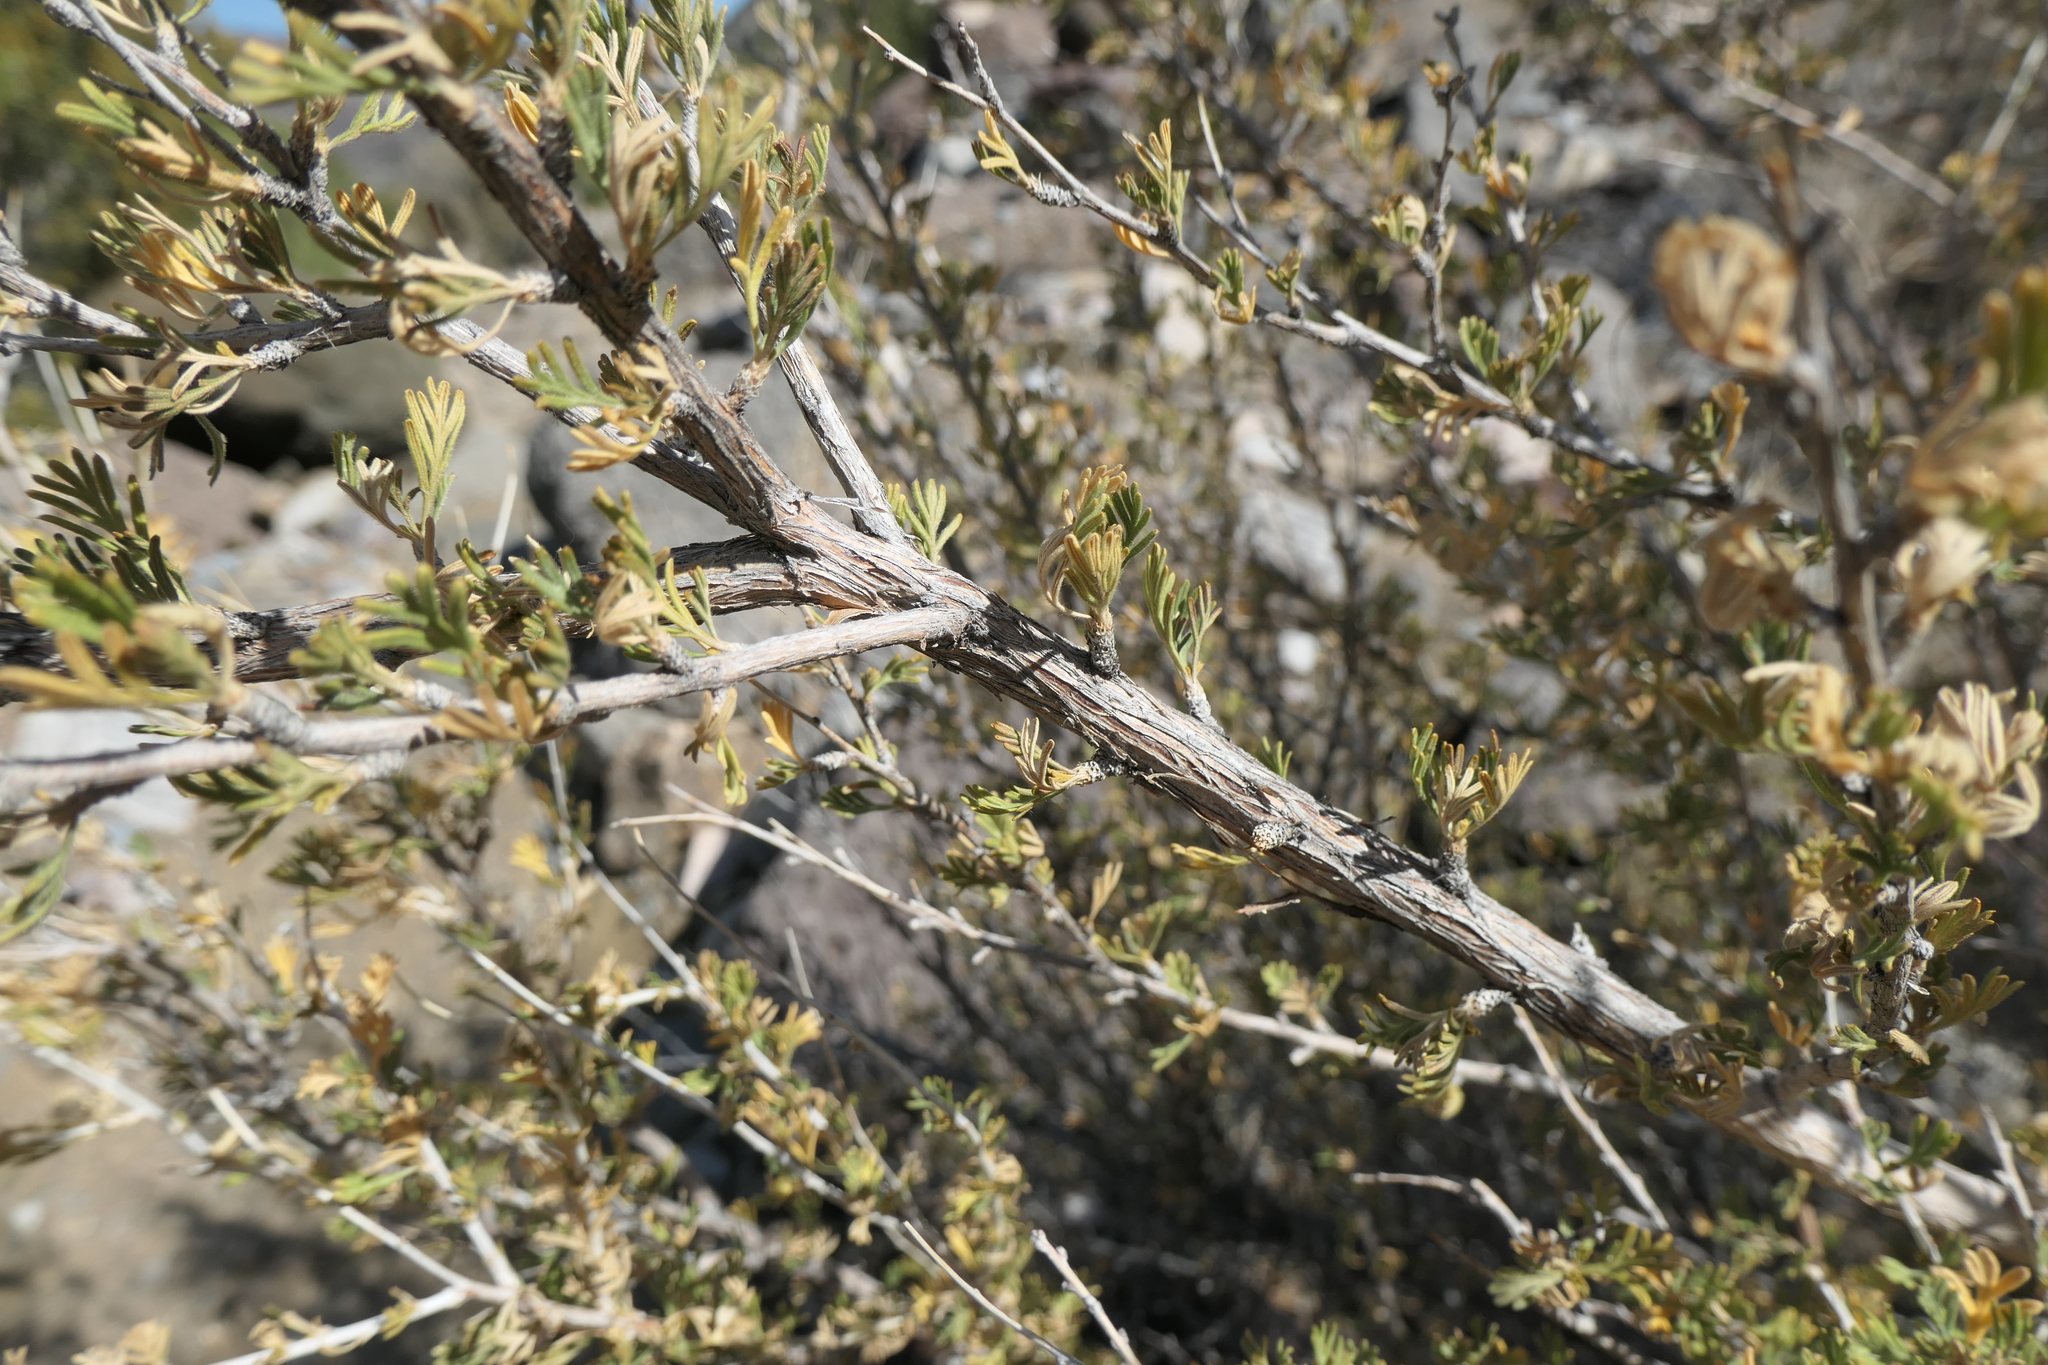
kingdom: Plantae
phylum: Tracheophyta
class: Magnoliopsida
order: Rosales
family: Rosaceae
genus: Fallugia
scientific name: Fallugia paradoxa
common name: Apache-plume
